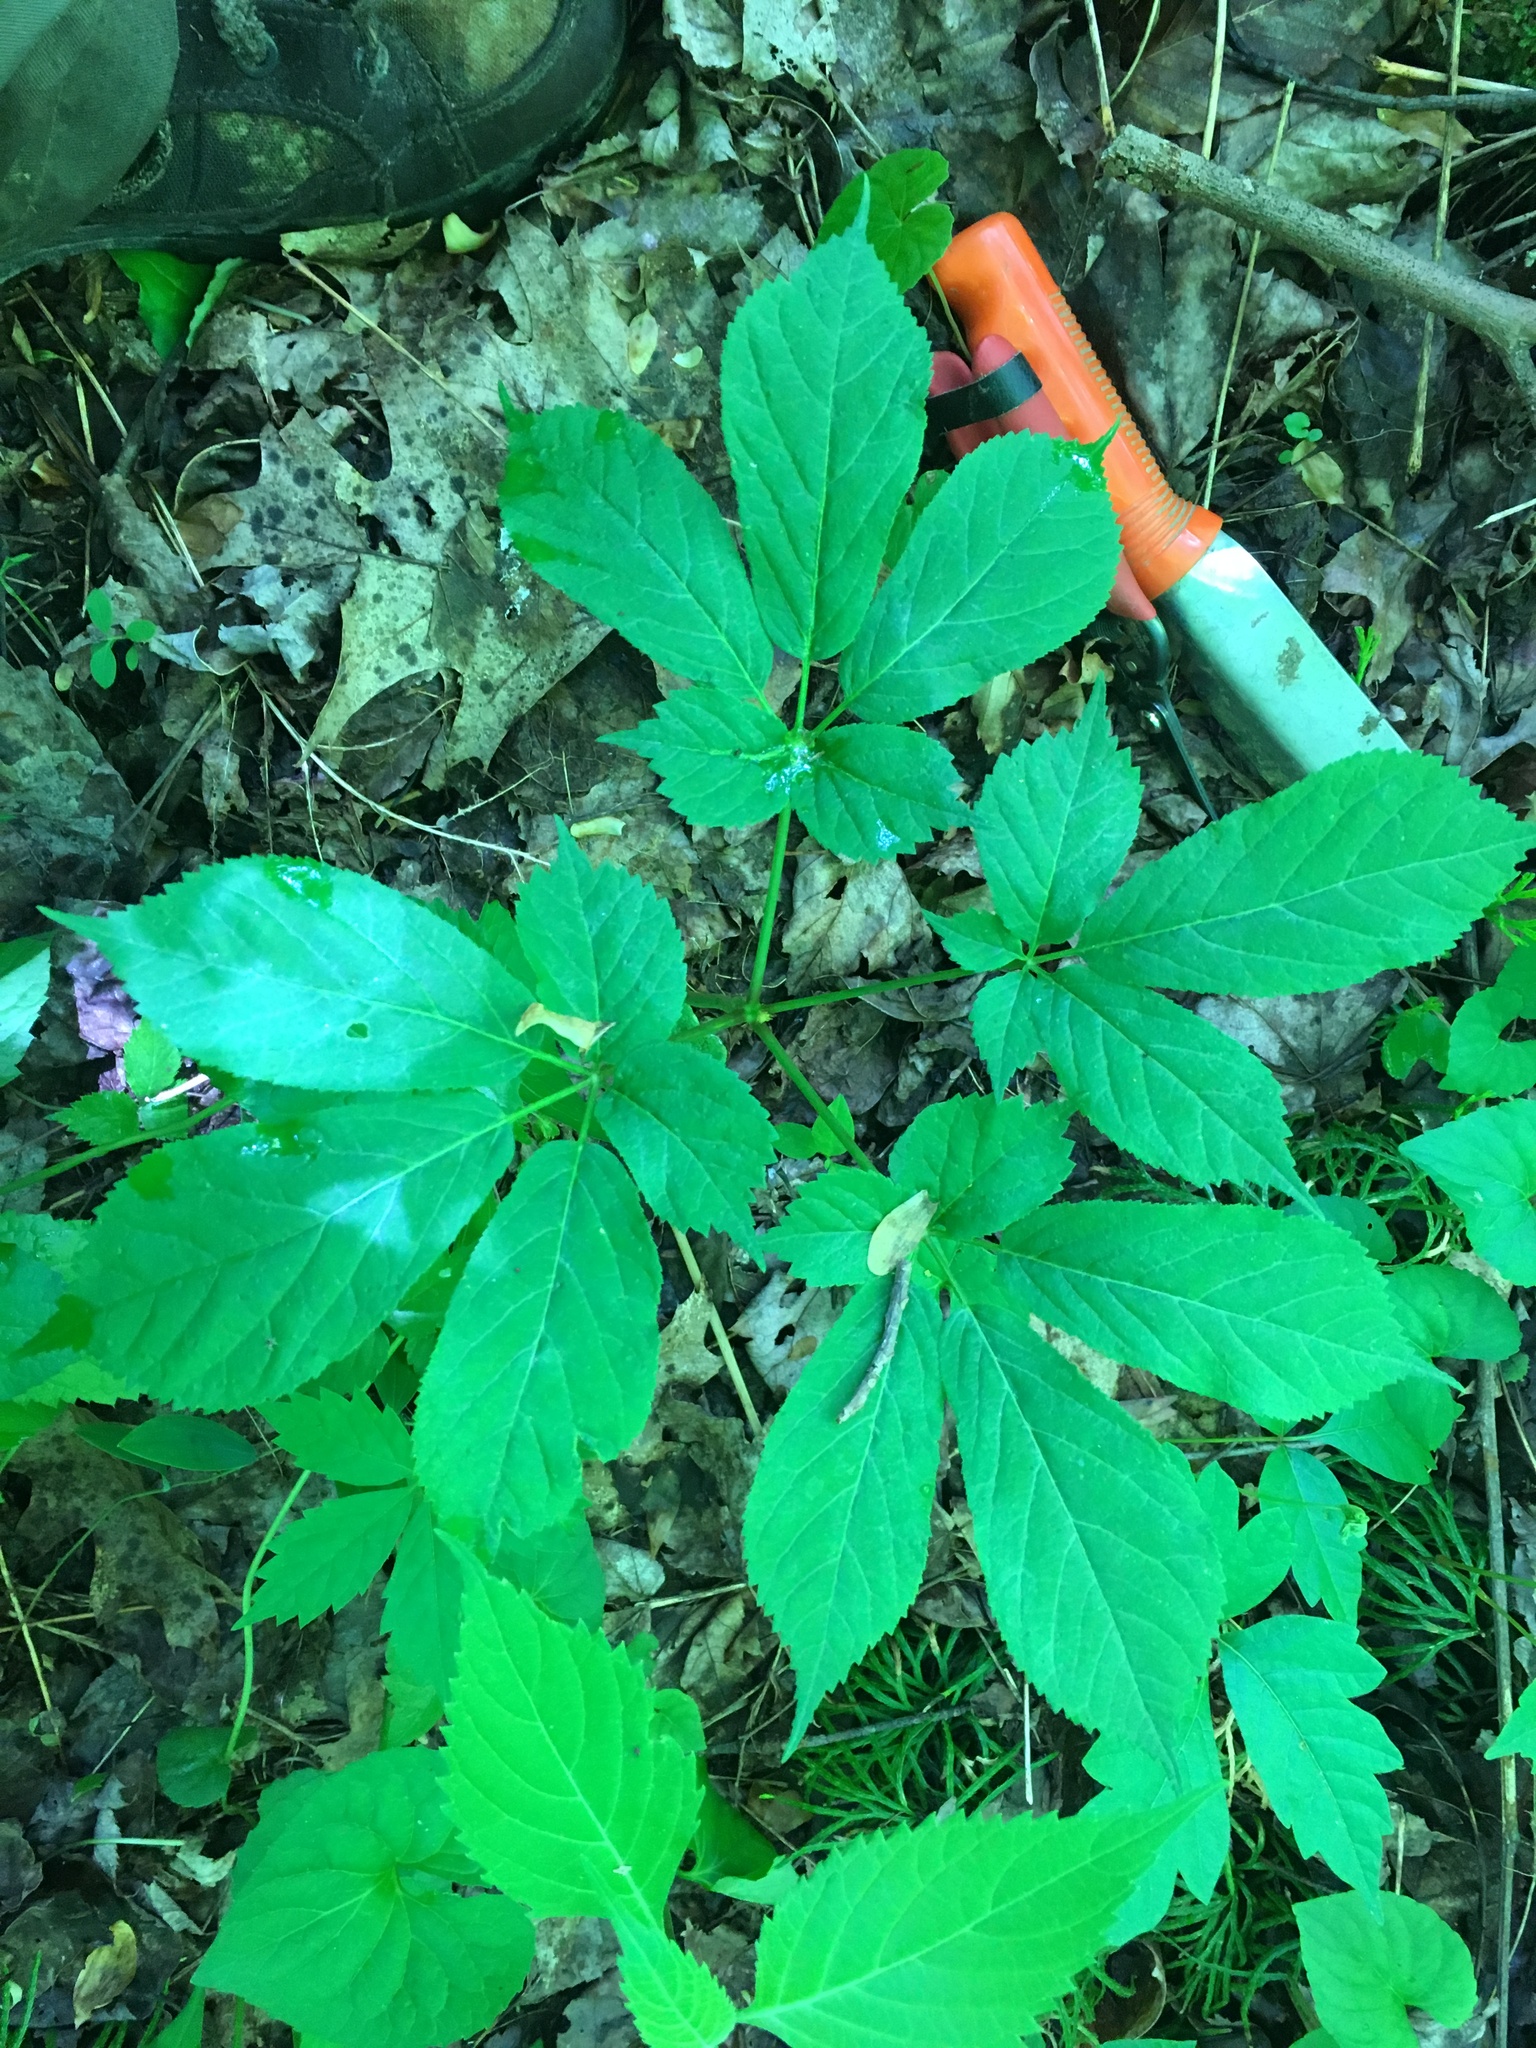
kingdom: Plantae
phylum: Tracheophyta
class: Magnoliopsida
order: Apiales
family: Araliaceae
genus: Panax
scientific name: Panax quinquefolius
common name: American ginseng
